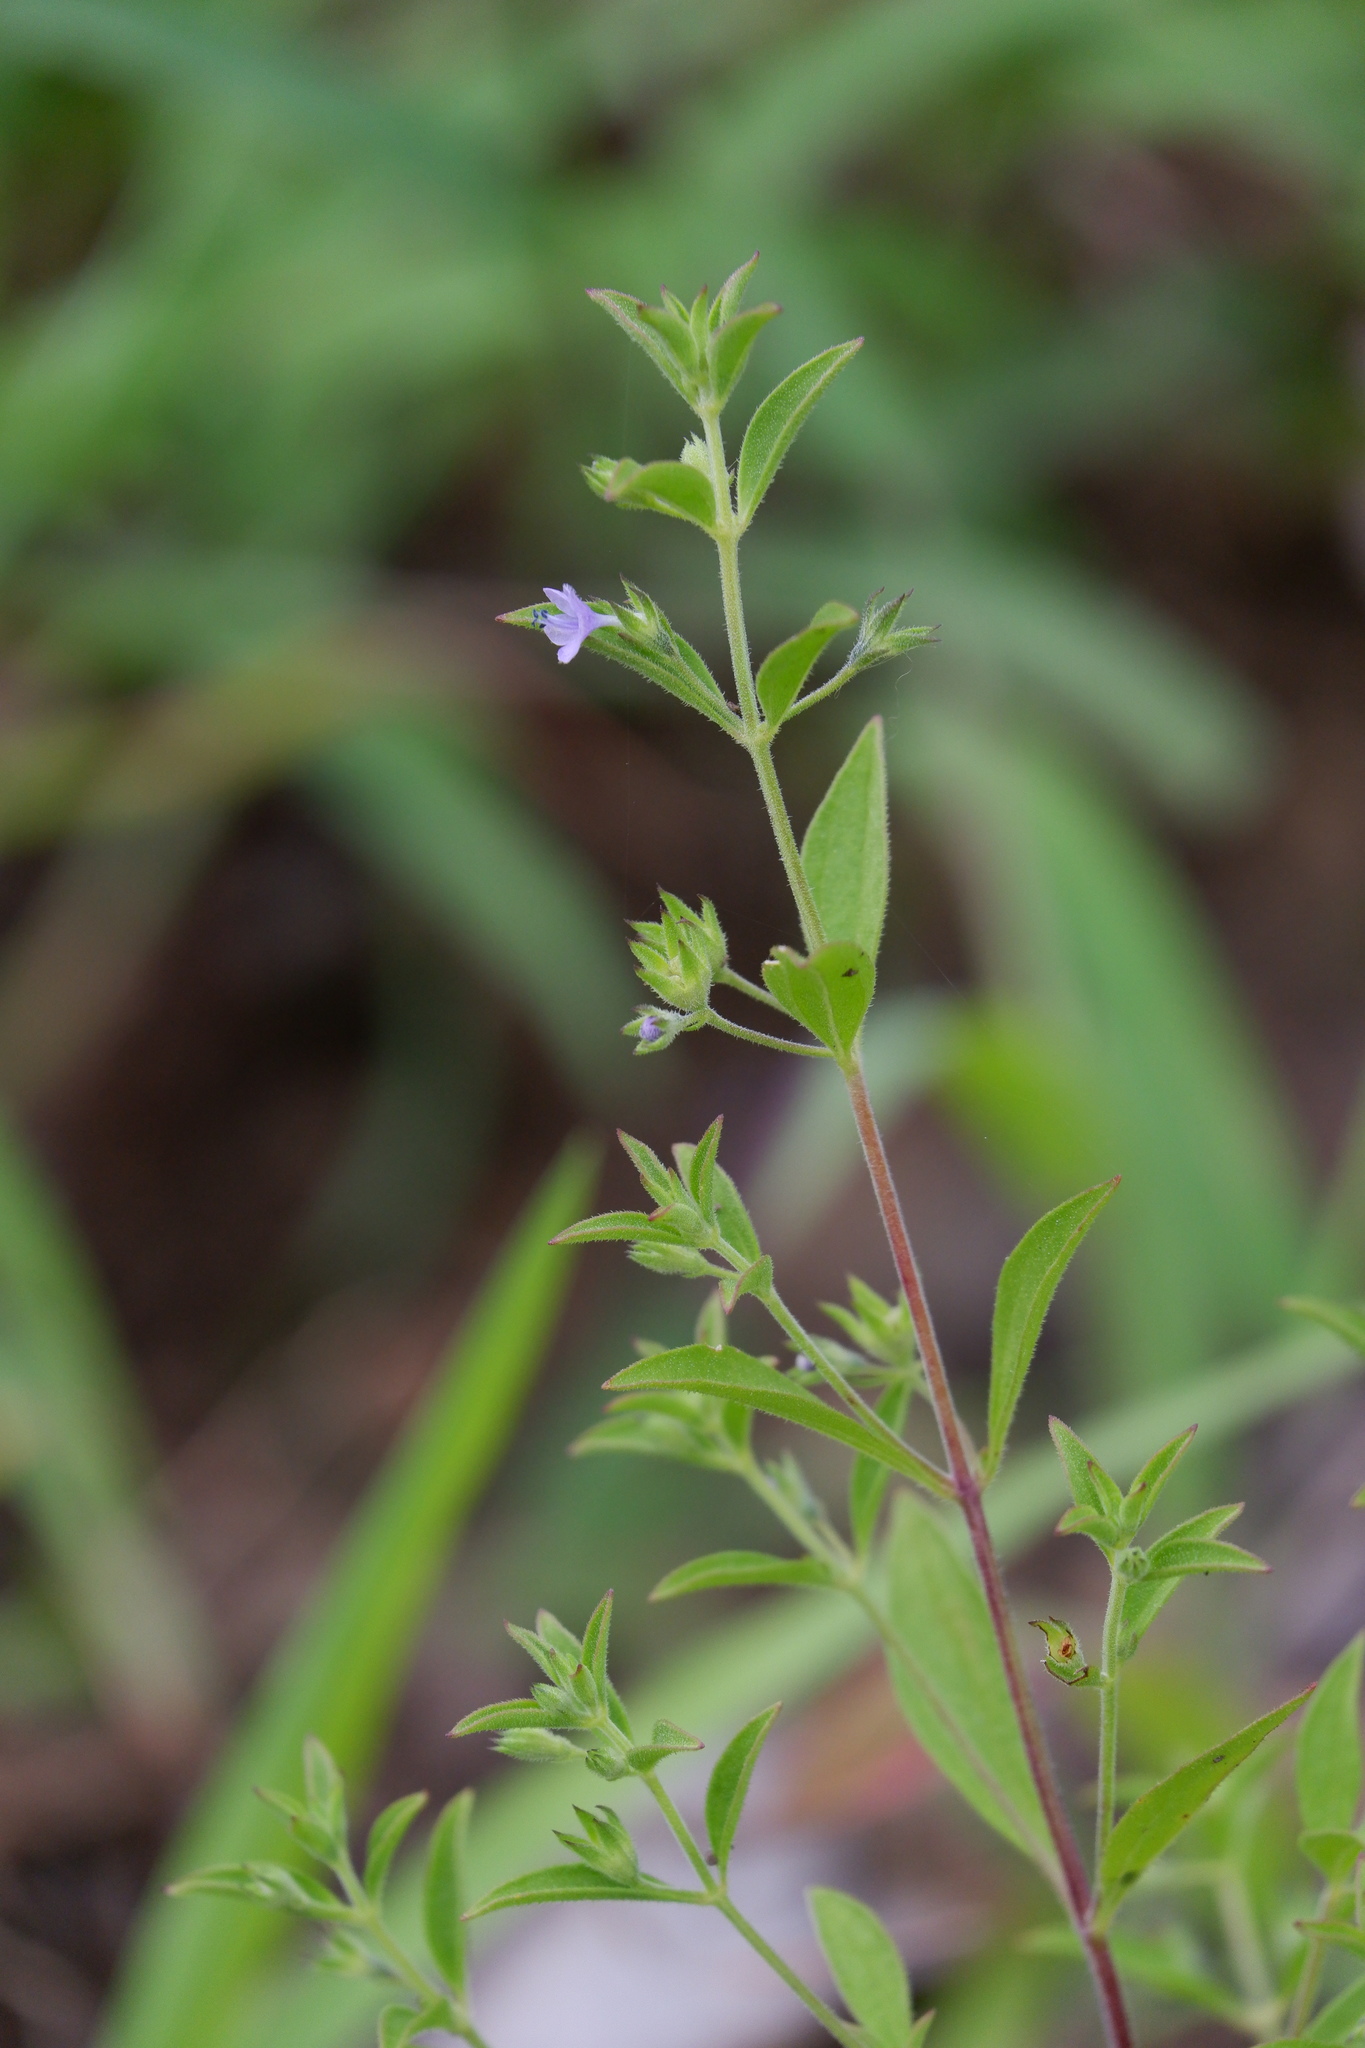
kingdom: Plantae
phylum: Tracheophyta
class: Magnoliopsida
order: Lamiales
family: Lamiaceae
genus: Trichostema
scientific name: Trichostema brachiatum
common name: False pennyroyal
